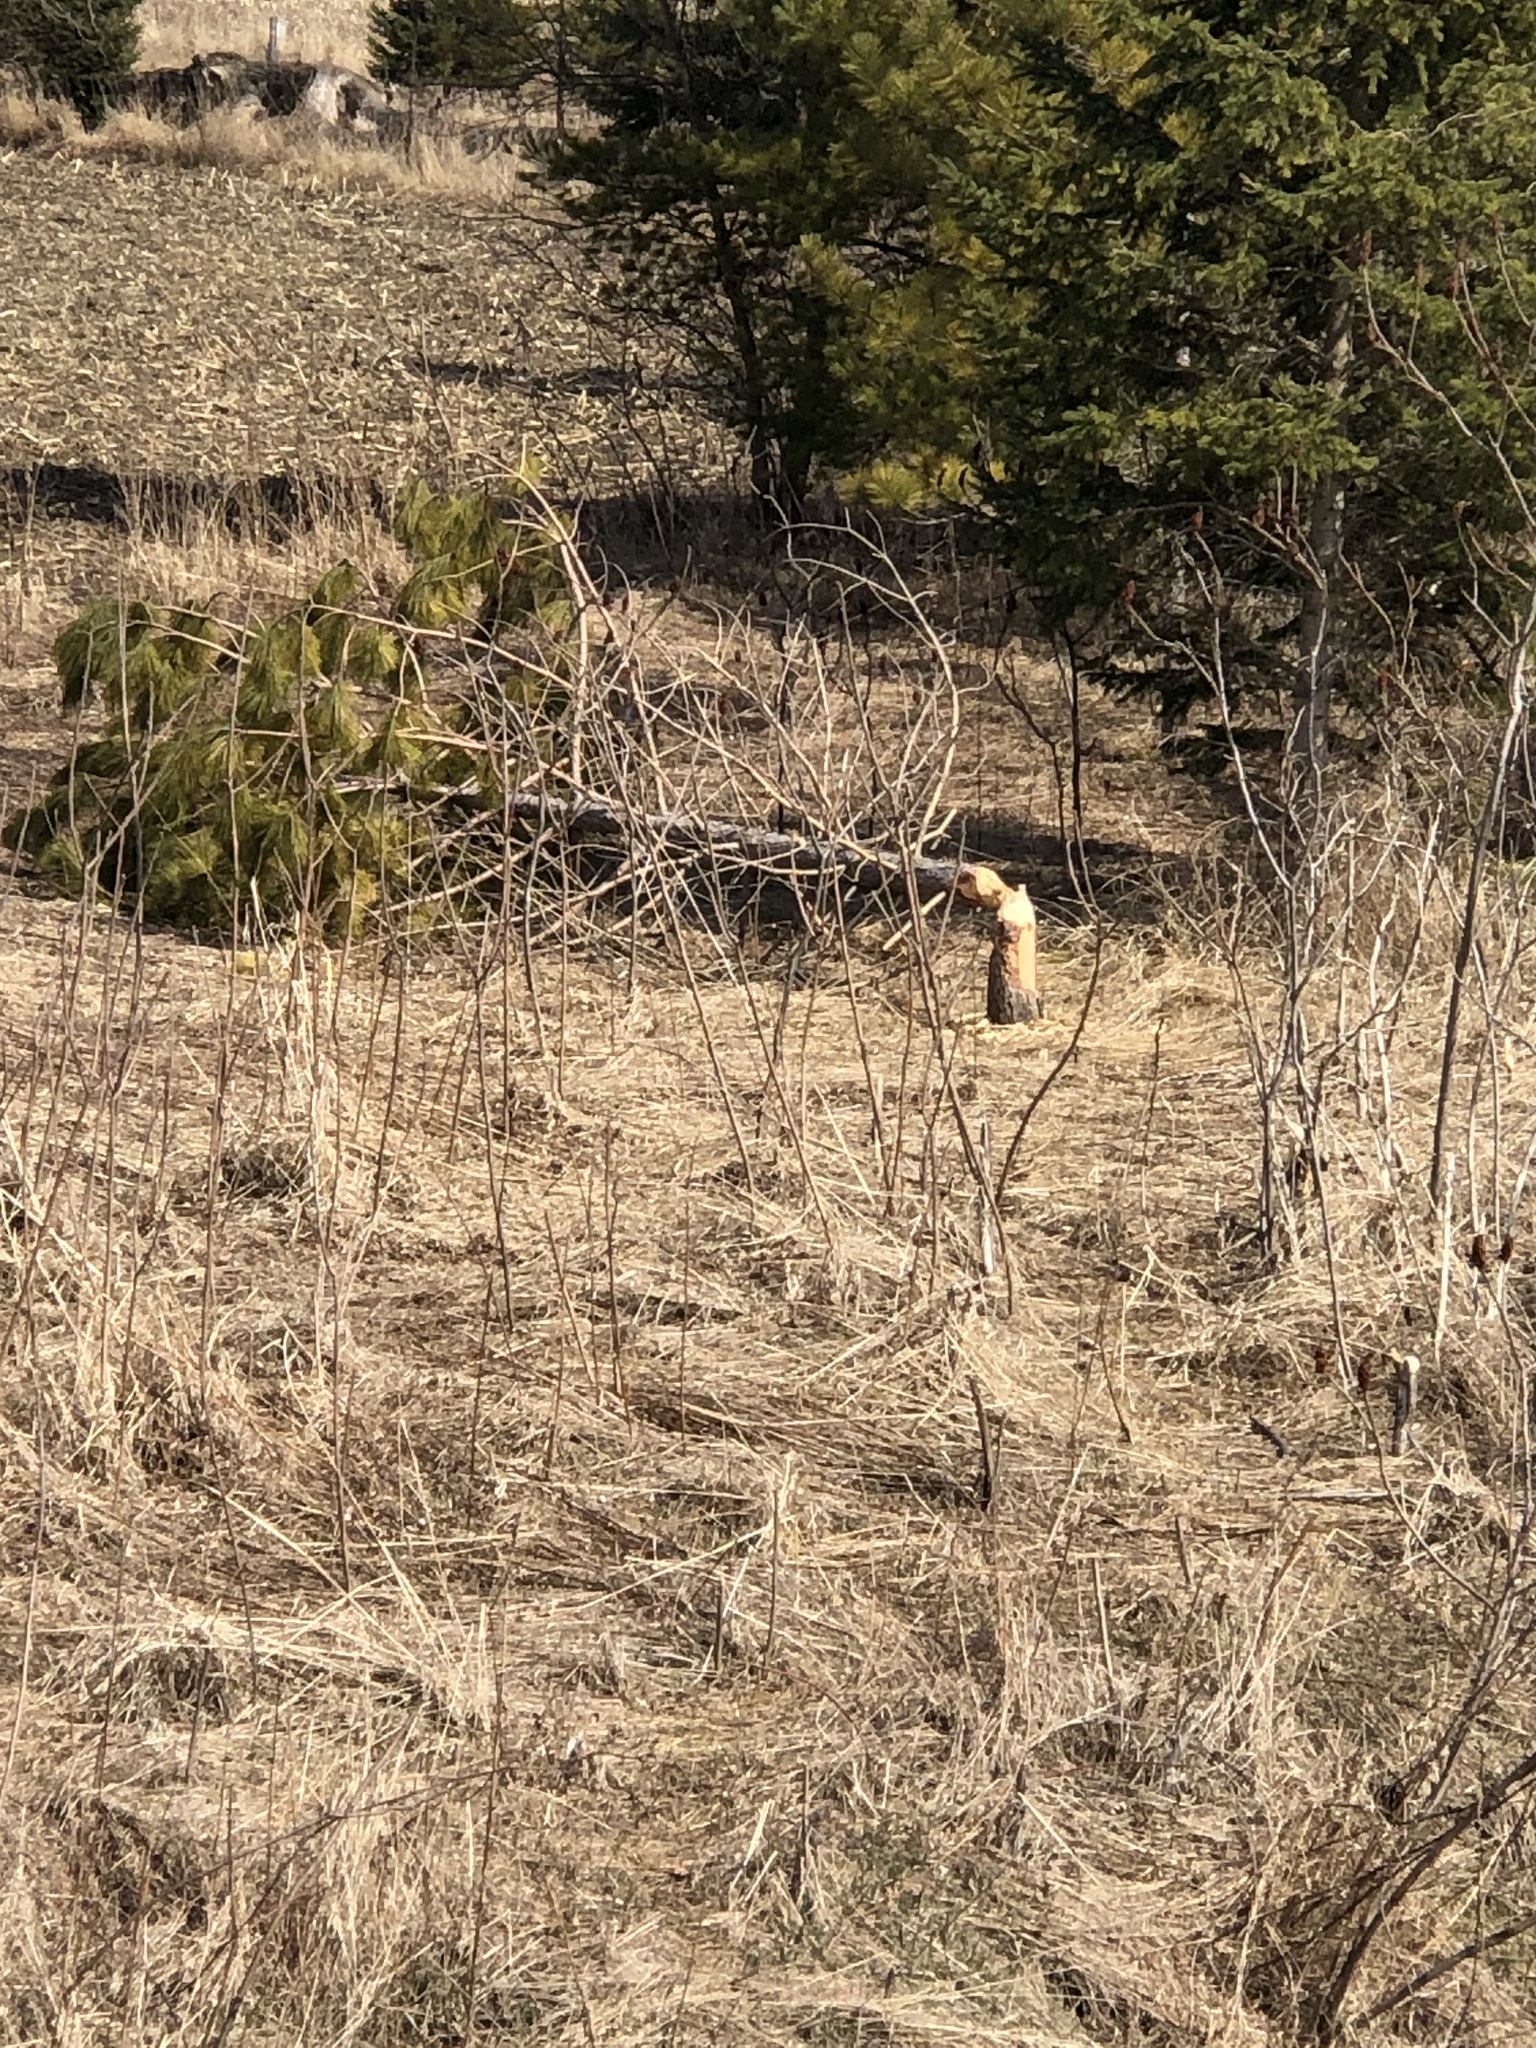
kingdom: Animalia
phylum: Chordata
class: Mammalia
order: Rodentia
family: Castoridae
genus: Castor
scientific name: Castor canadensis
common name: American beaver
